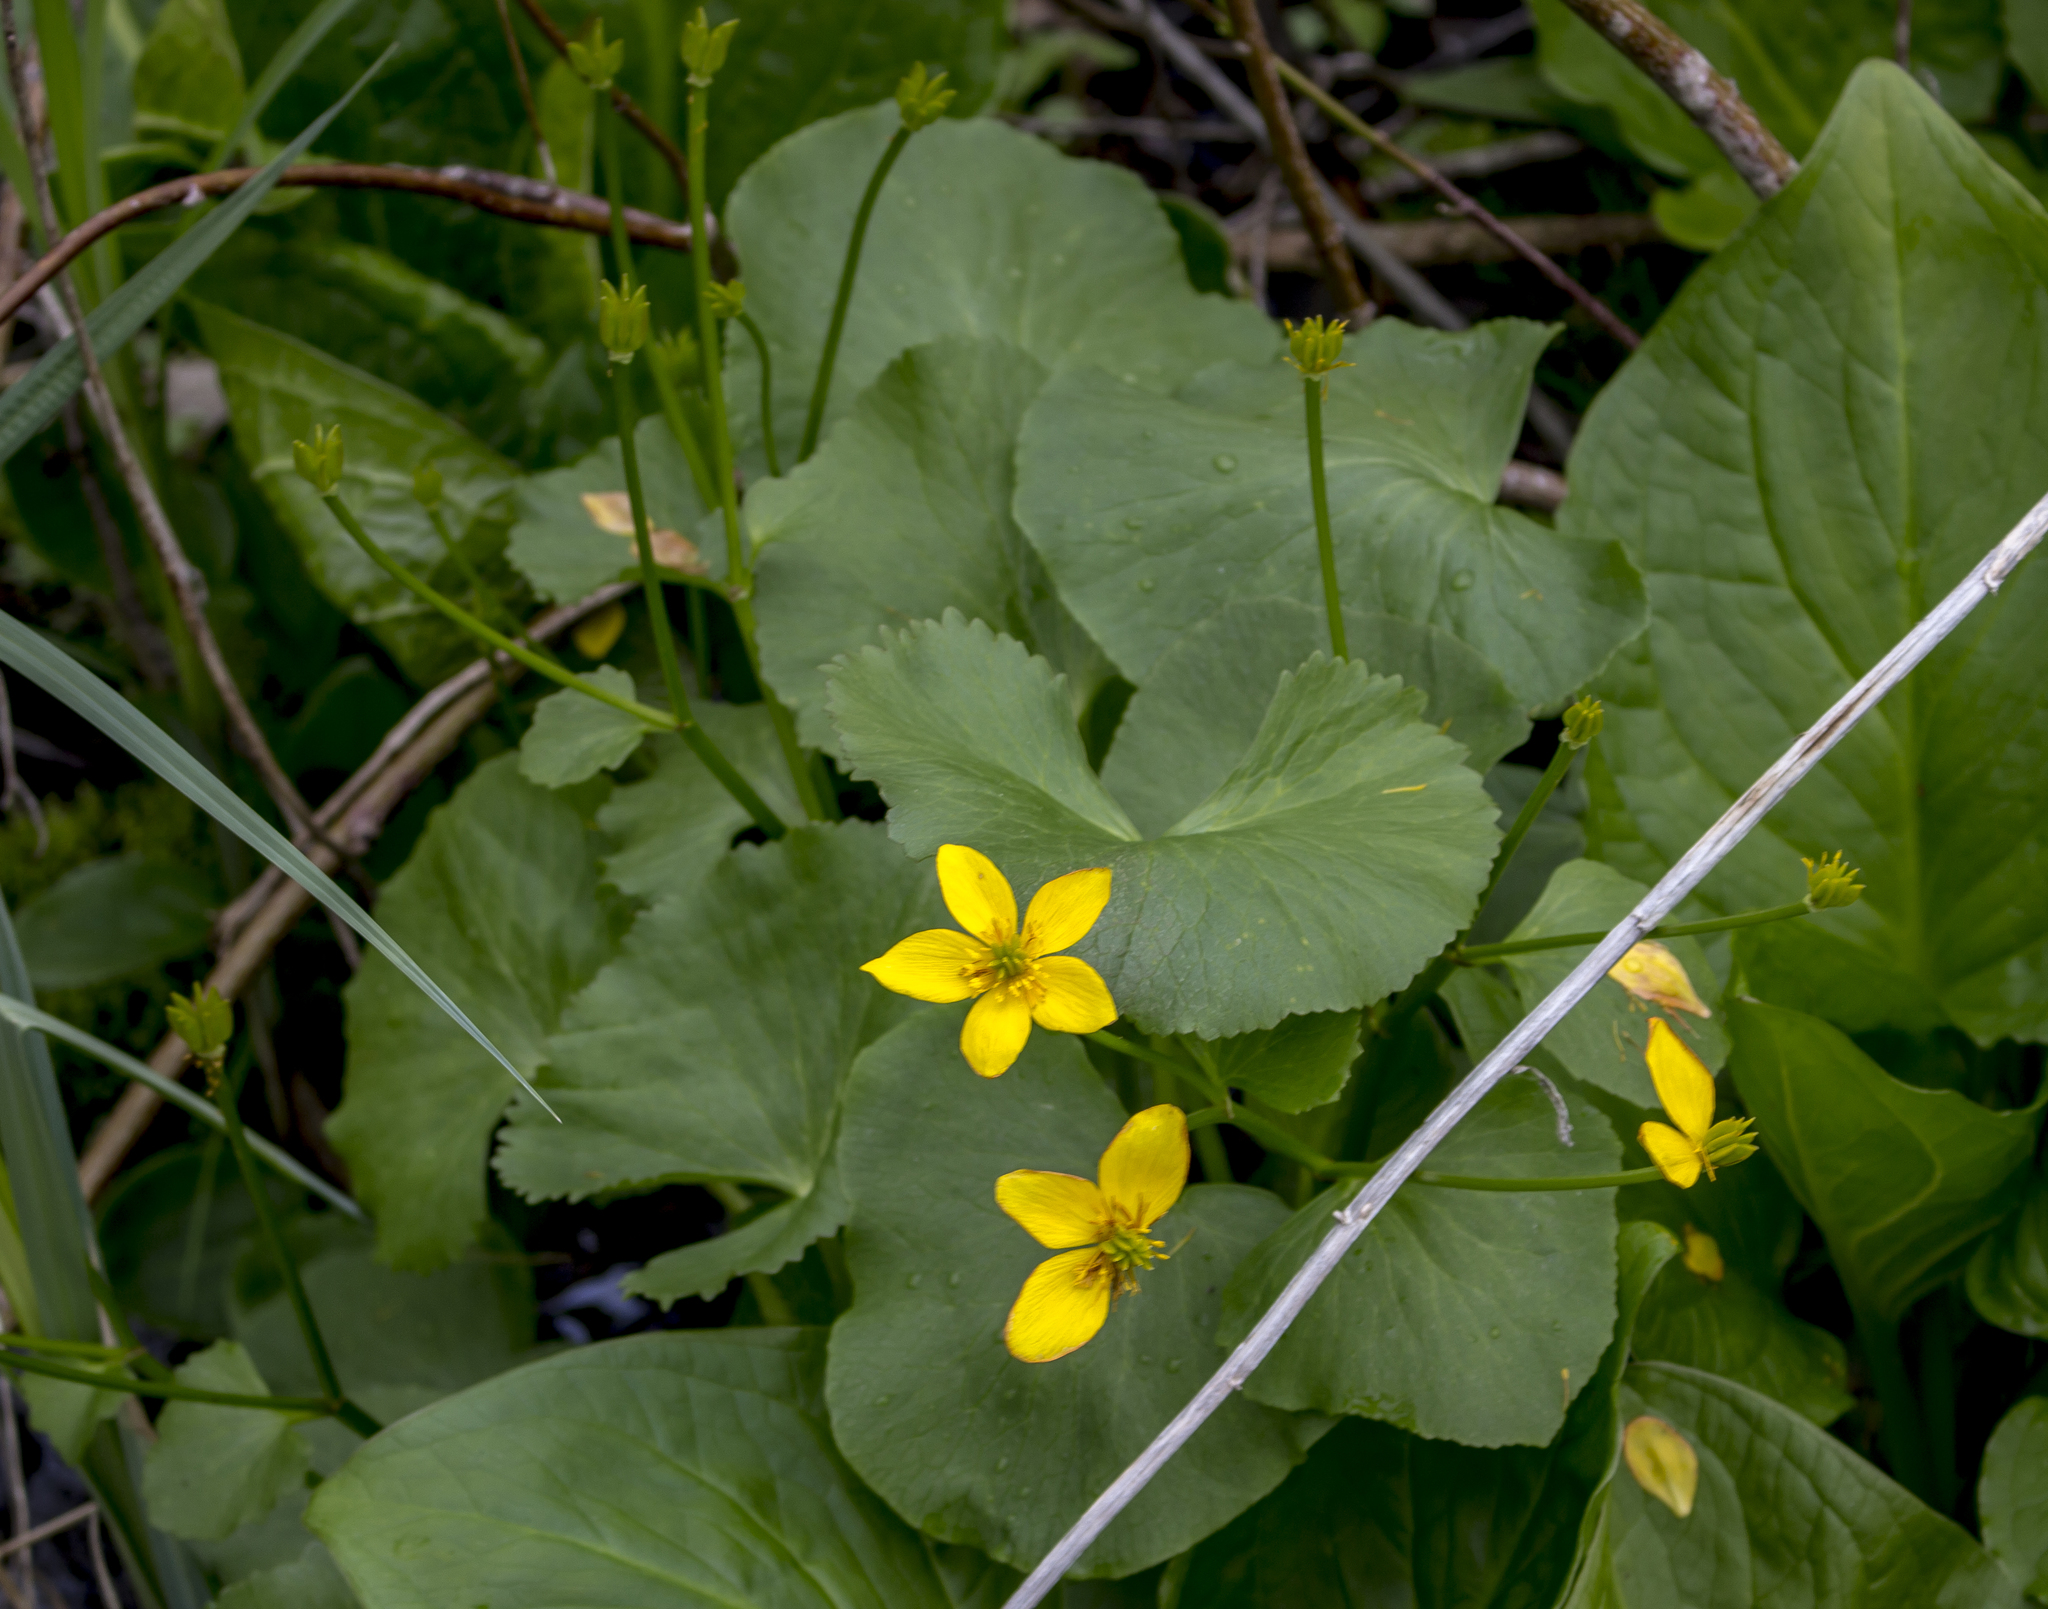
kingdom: Plantae
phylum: Tracheophyta
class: Magnoliopsida
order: Ranunculales
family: Ranunculaceae
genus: Caltha
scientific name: Caltha palustris
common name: Marsh marigold
